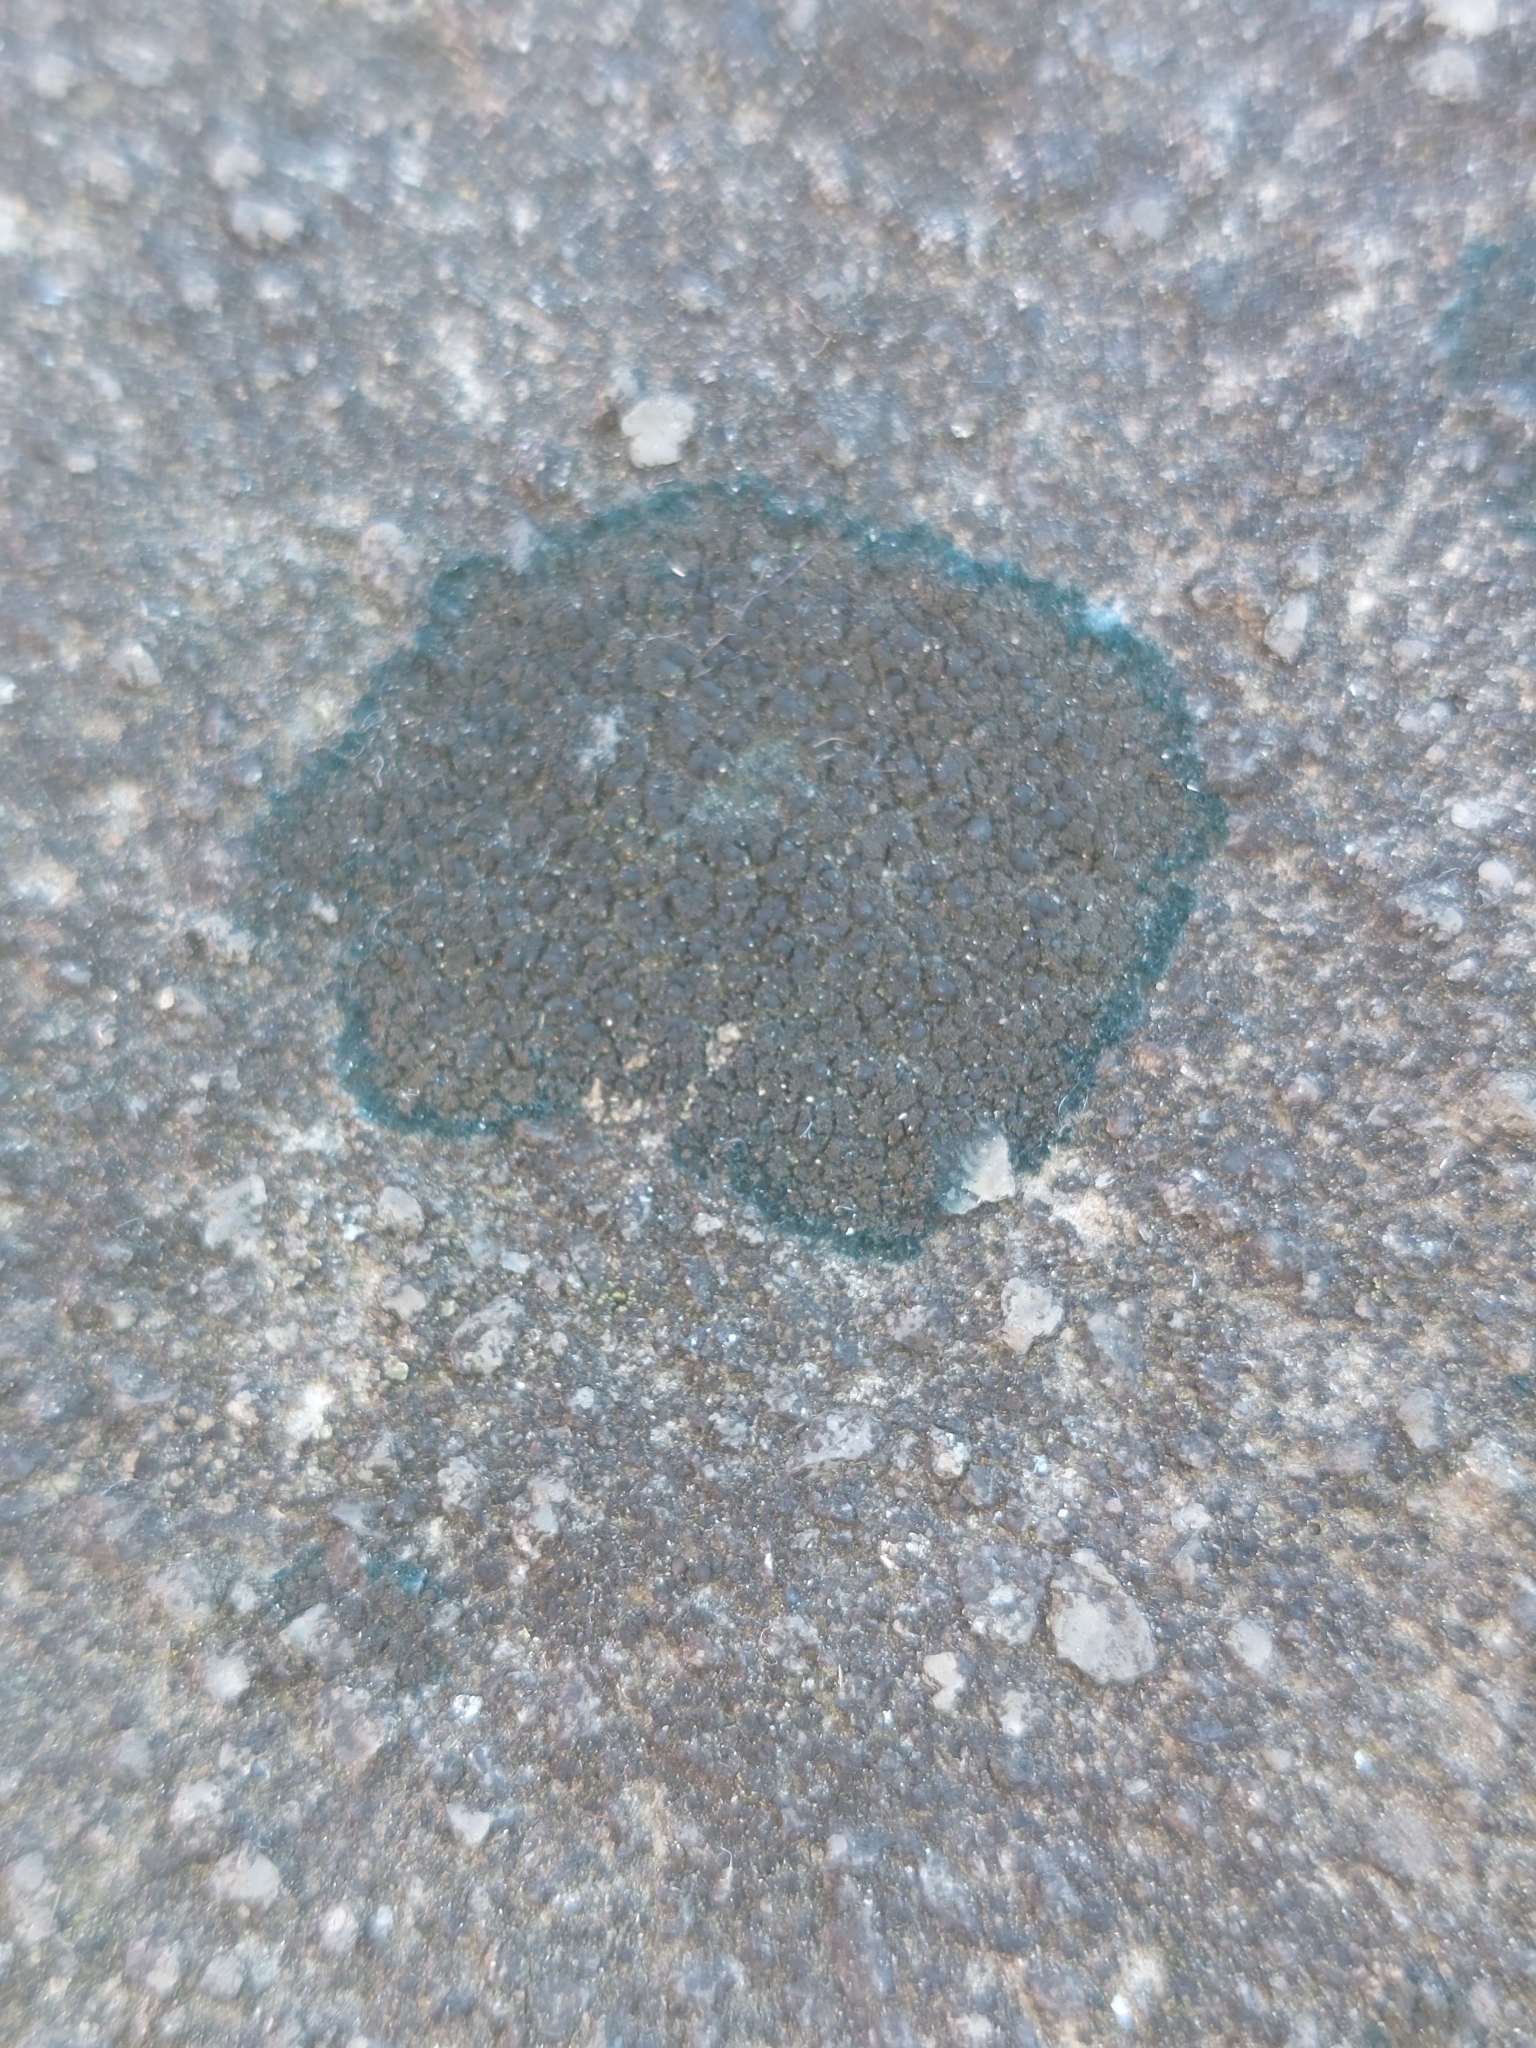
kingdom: Fungi
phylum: Ascomycota
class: Lecanoromycetes
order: Peltigerales
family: Placynthiaceae
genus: Placynthium
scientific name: Placynthium nigrum
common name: Blackthread lichen
